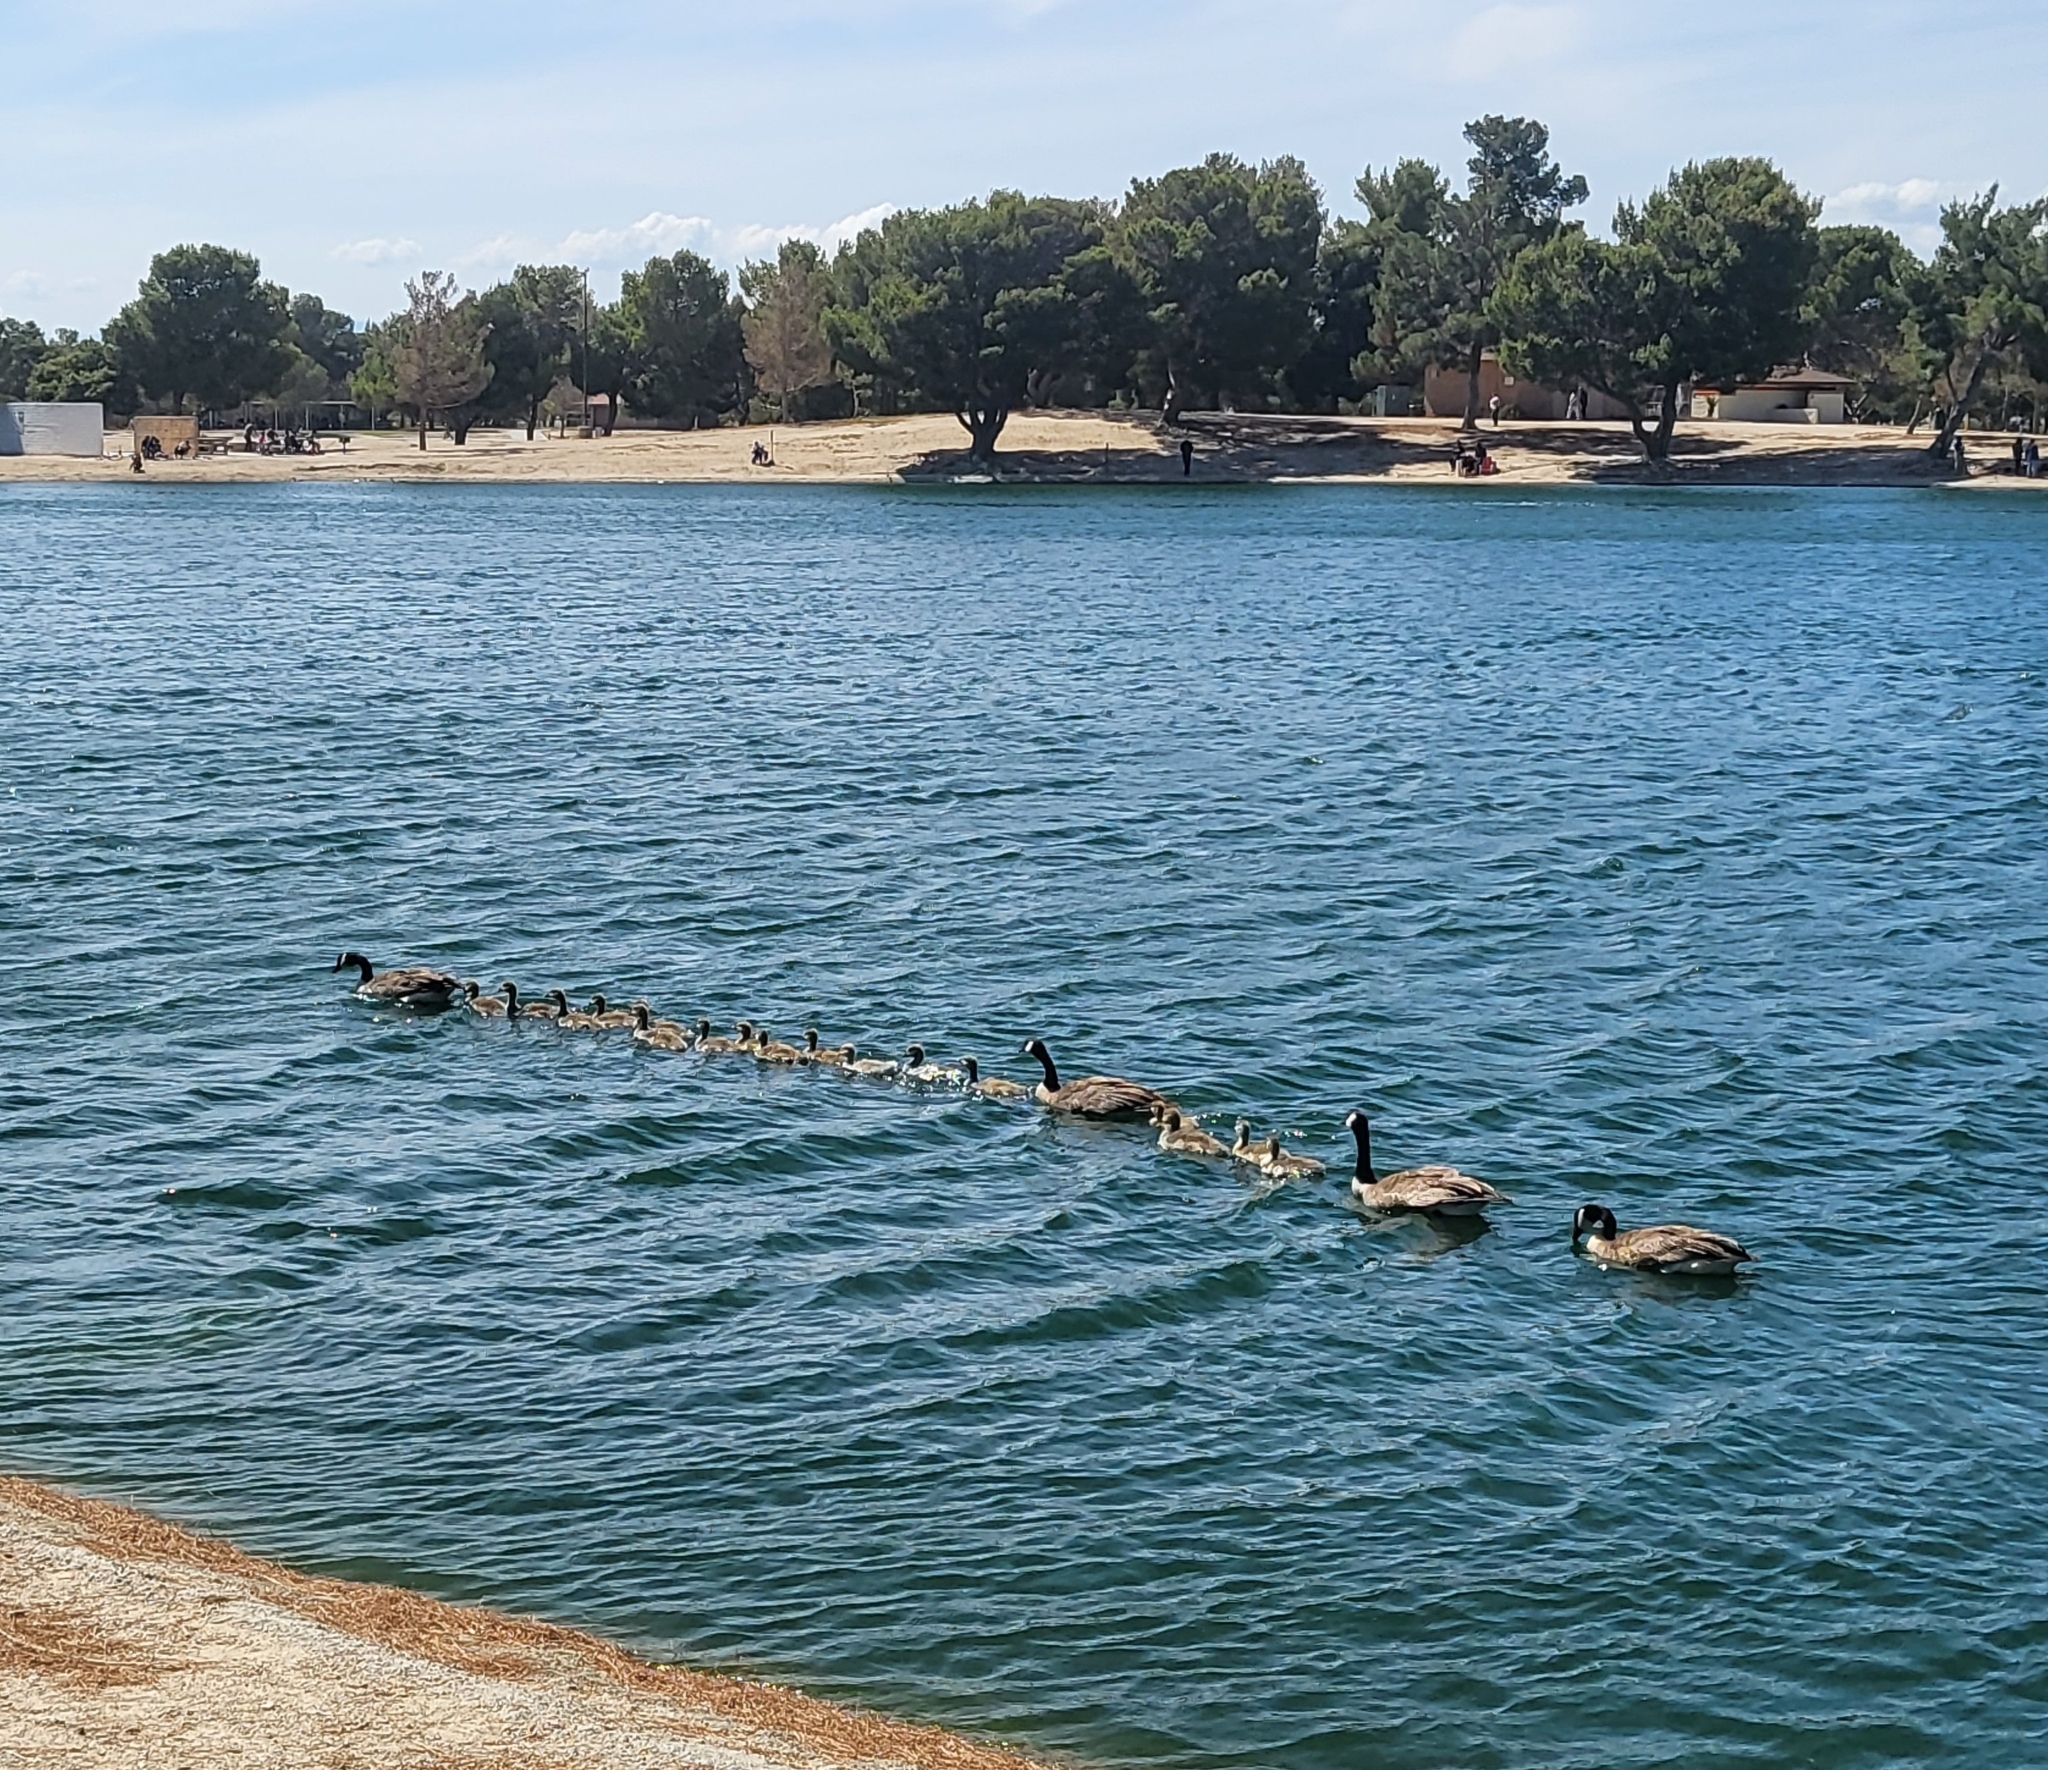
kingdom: Animalia
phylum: Chordata
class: Aves
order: Anseriformes
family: Anatidae
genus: Branta
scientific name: Branta canadensis
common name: Canada goose
